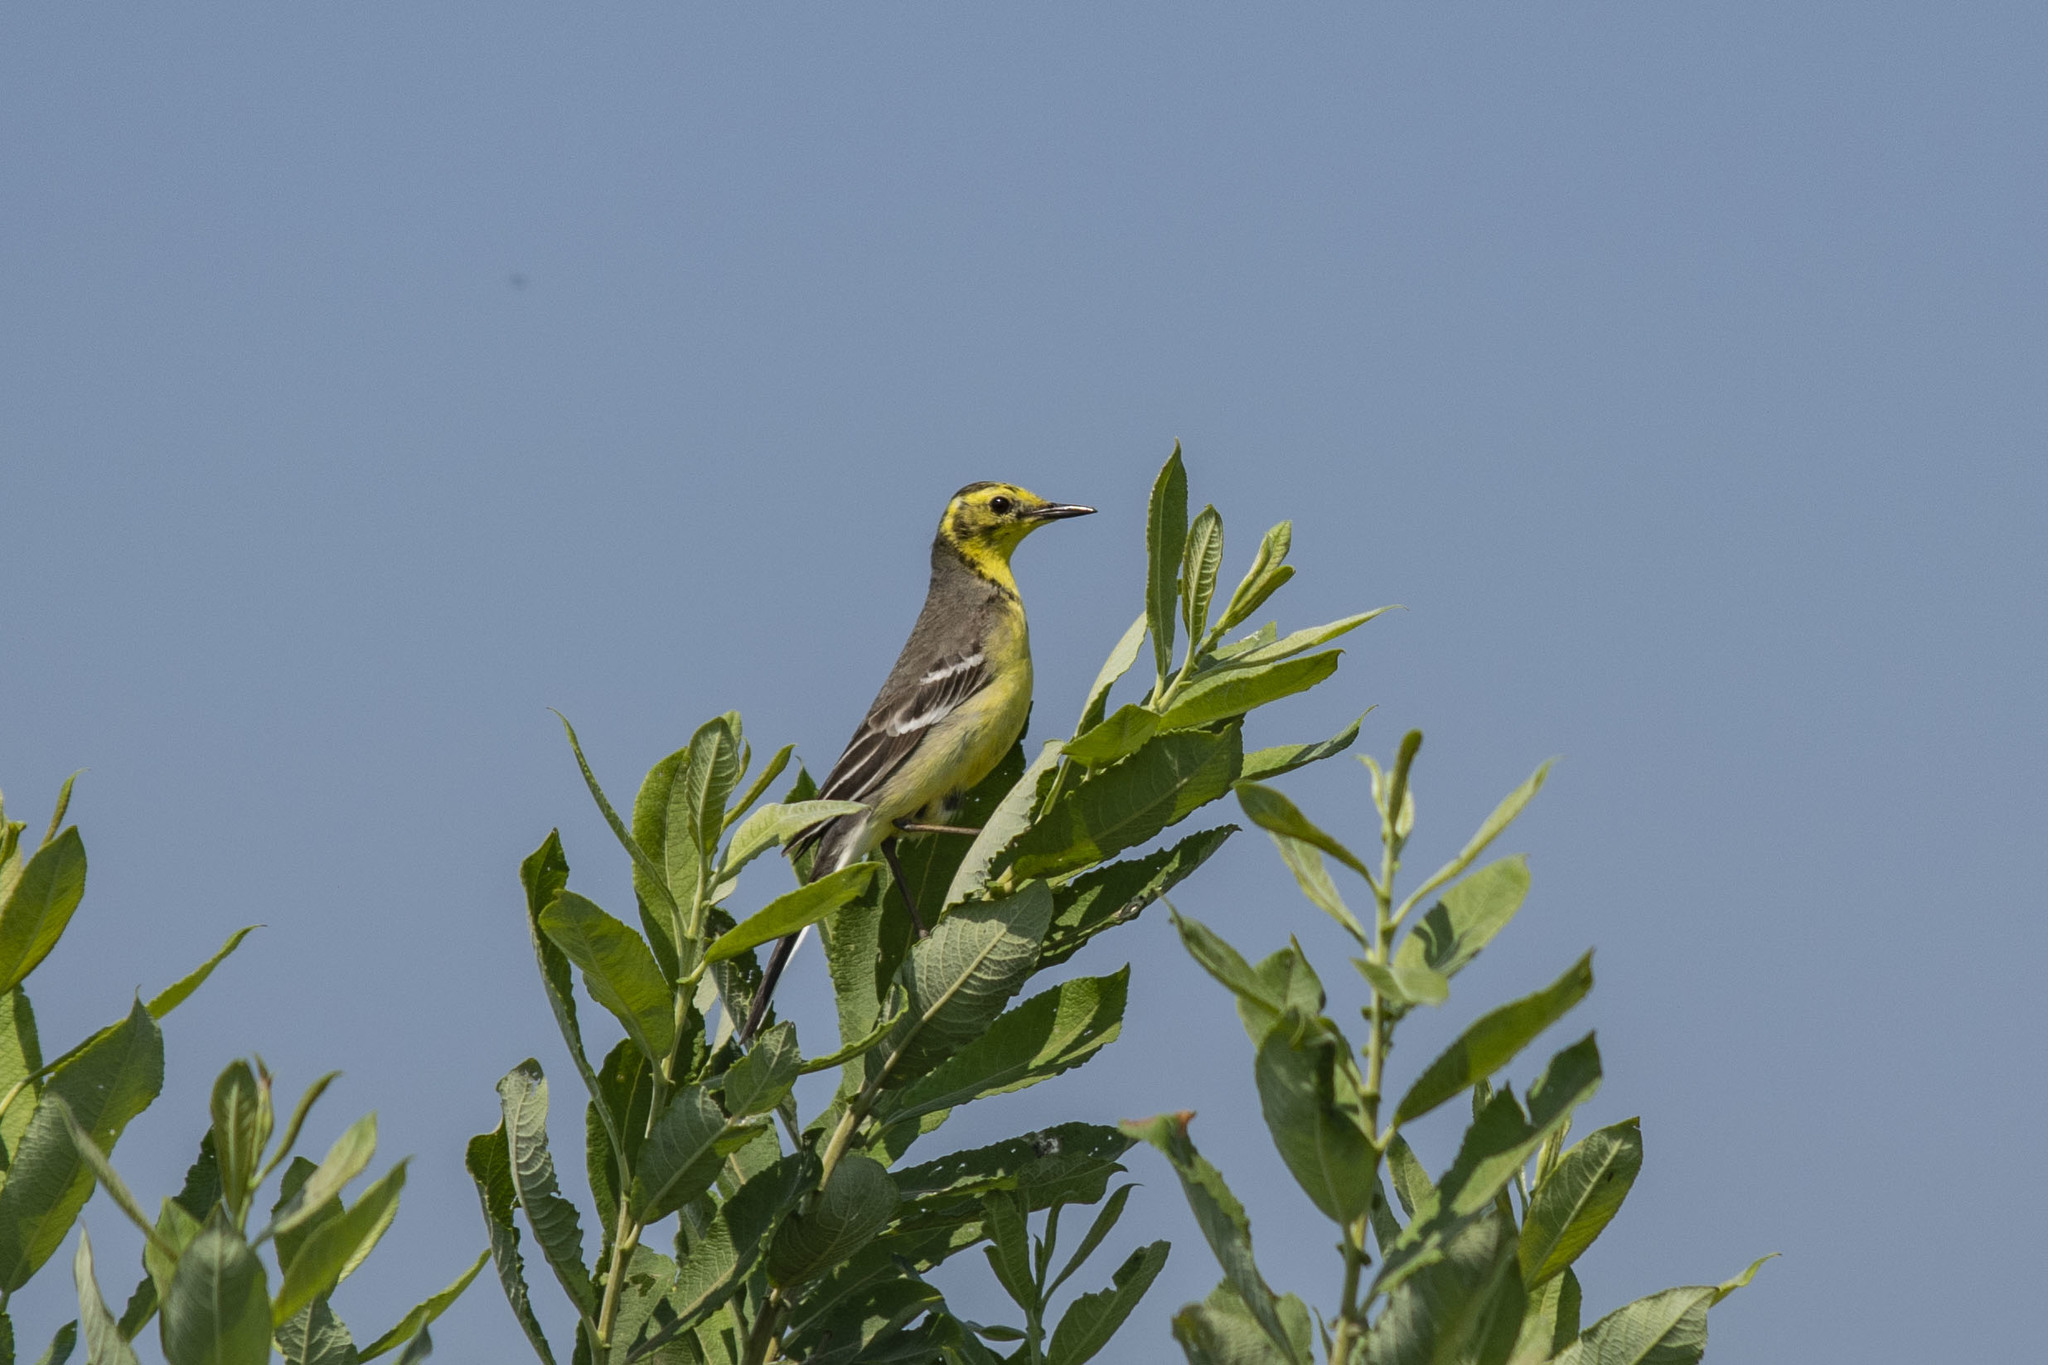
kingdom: Animalia
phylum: Chordata
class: Aves
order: Passeriformes
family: Motacillidae
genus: Motacilla
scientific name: Motacilla citreola
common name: Citrine wagtail
